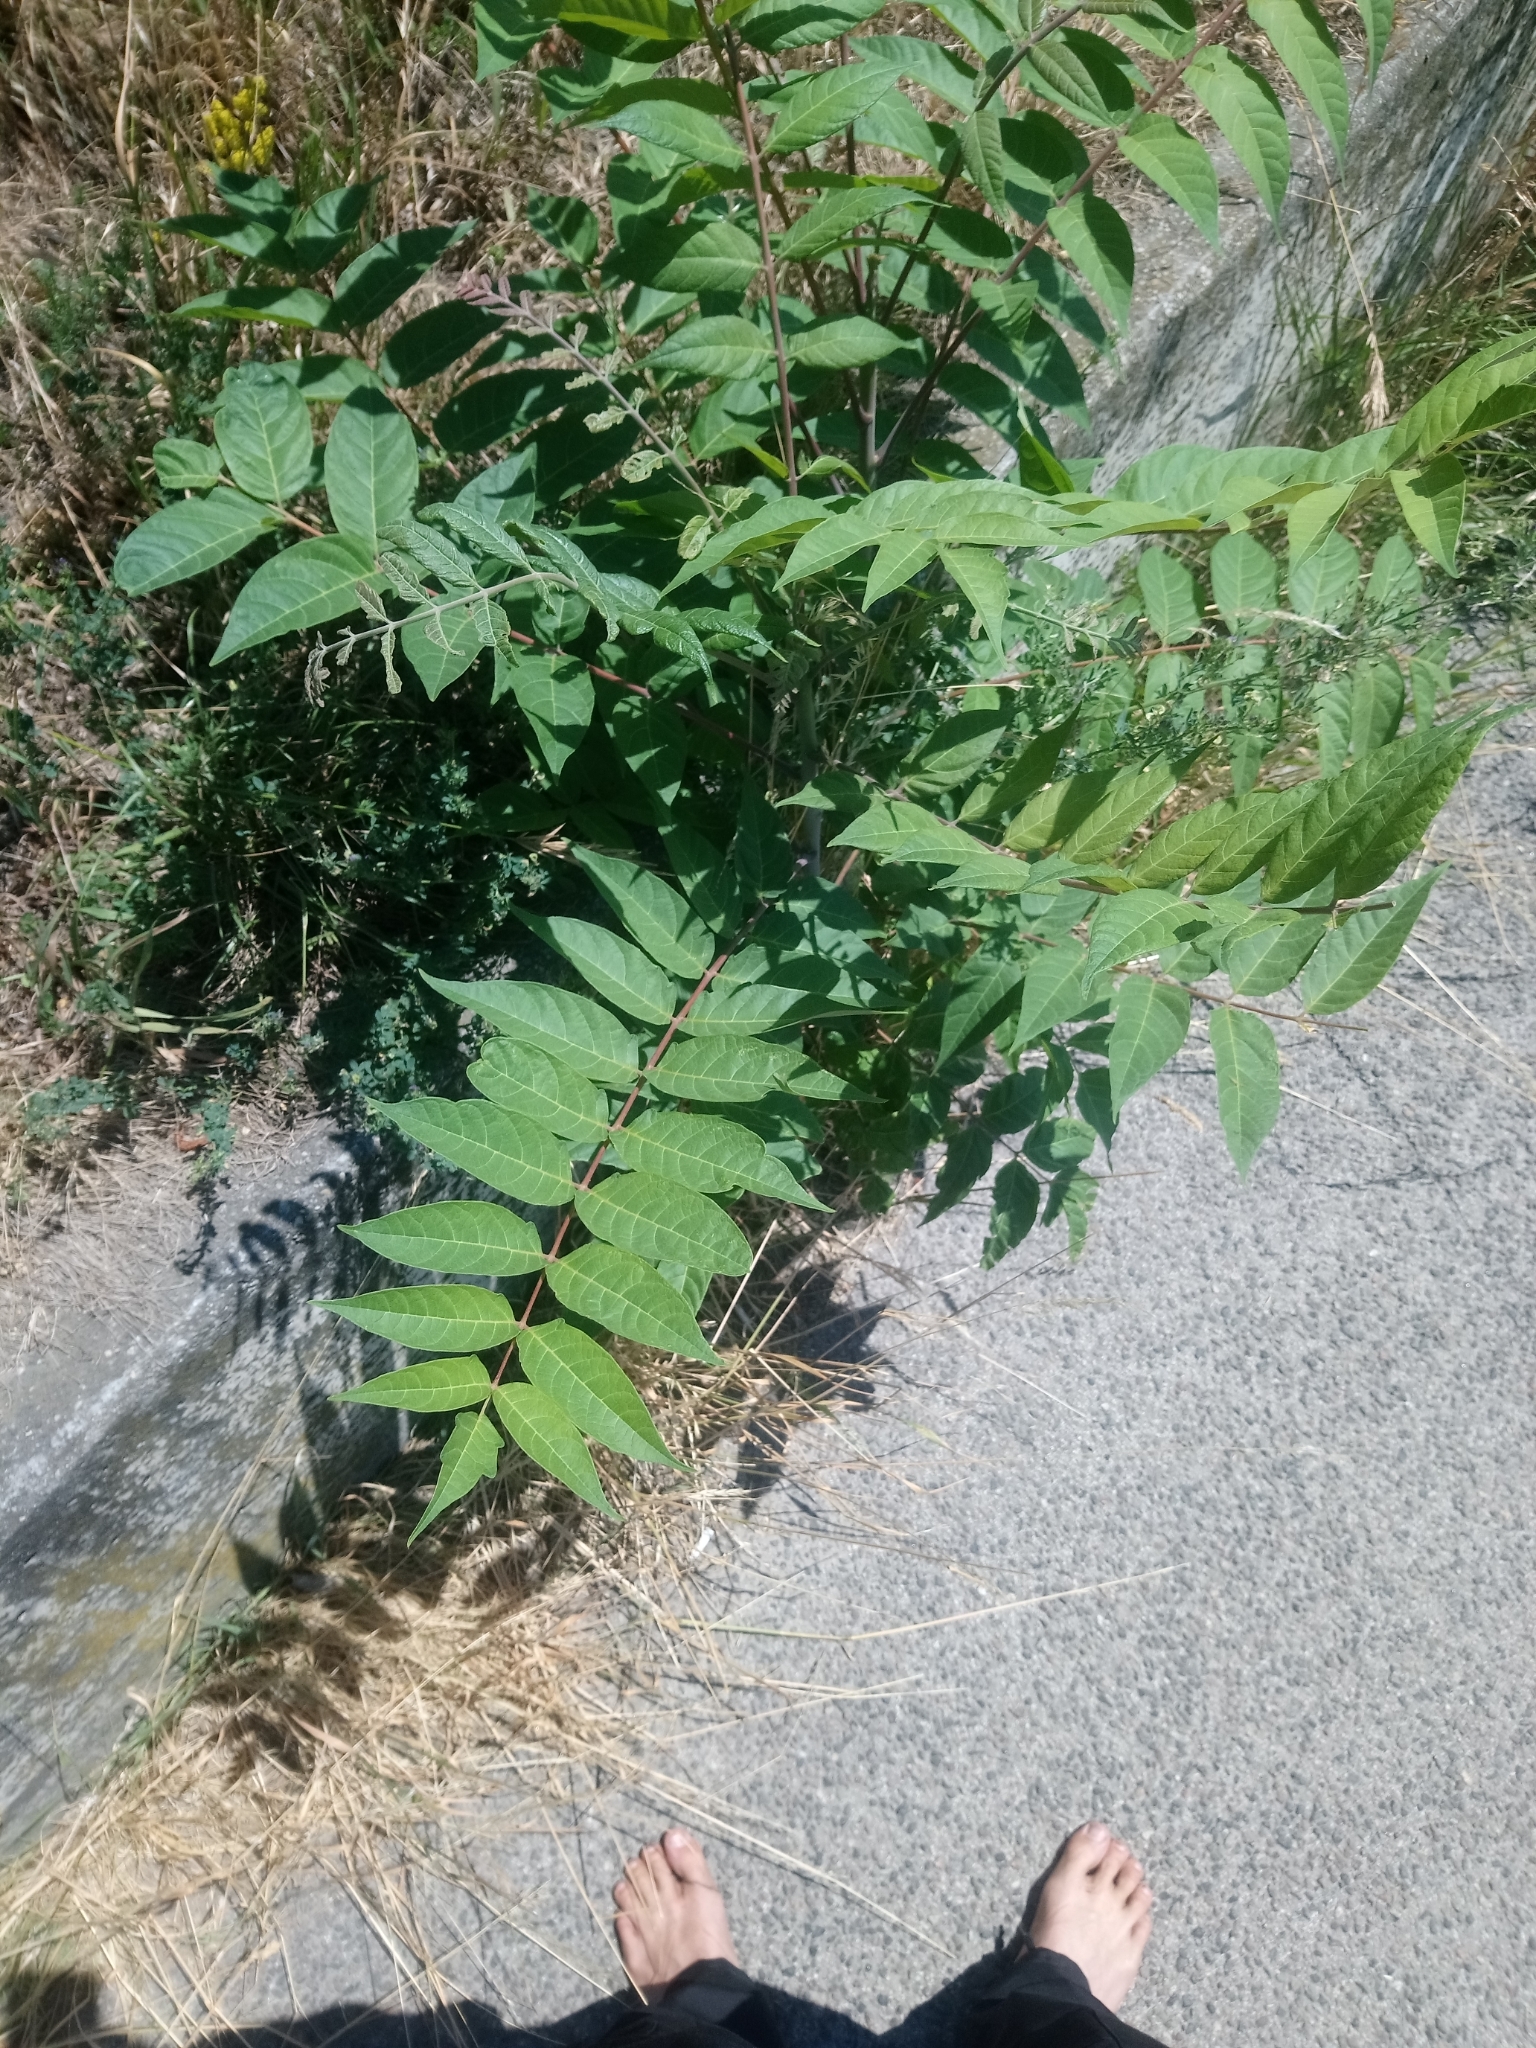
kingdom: Plantae
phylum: Tracheophyta
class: Magnoliopsida
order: Sapindales
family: Simaroubaceae
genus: Ailanthus
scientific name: Ailanthus altissima
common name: Tree-of-heaven
